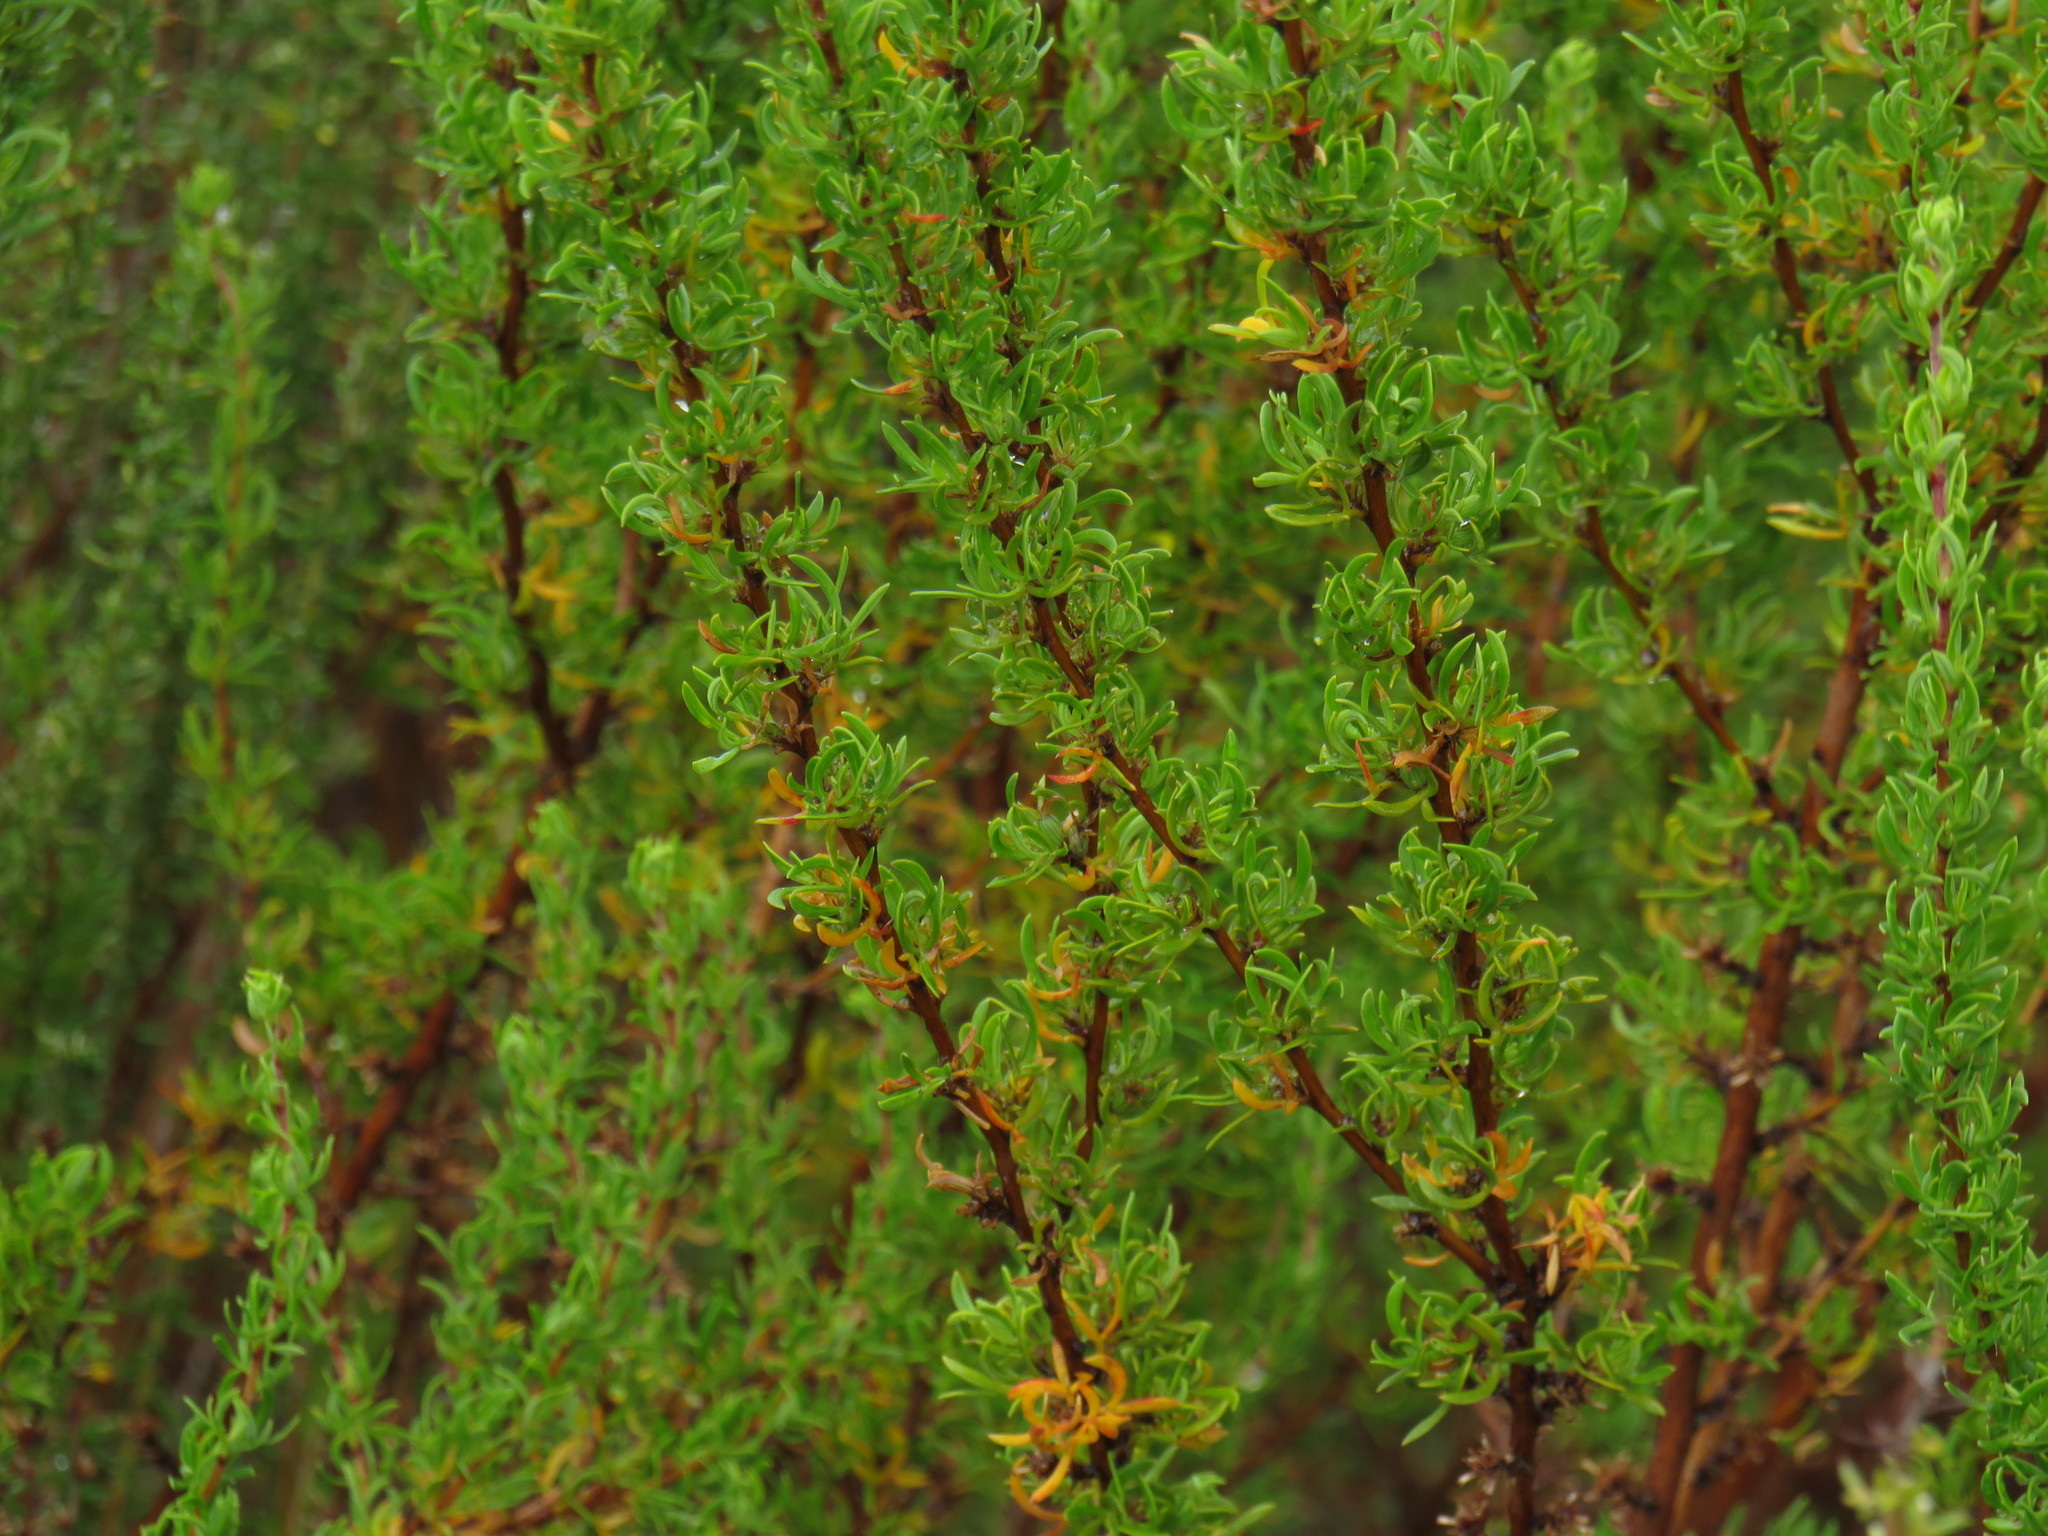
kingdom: Plantae
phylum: Tracheophyta
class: Magnoliopsida
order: Rosales
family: Rosaceae
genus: Cliffortia
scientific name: Cliffortia falcata
